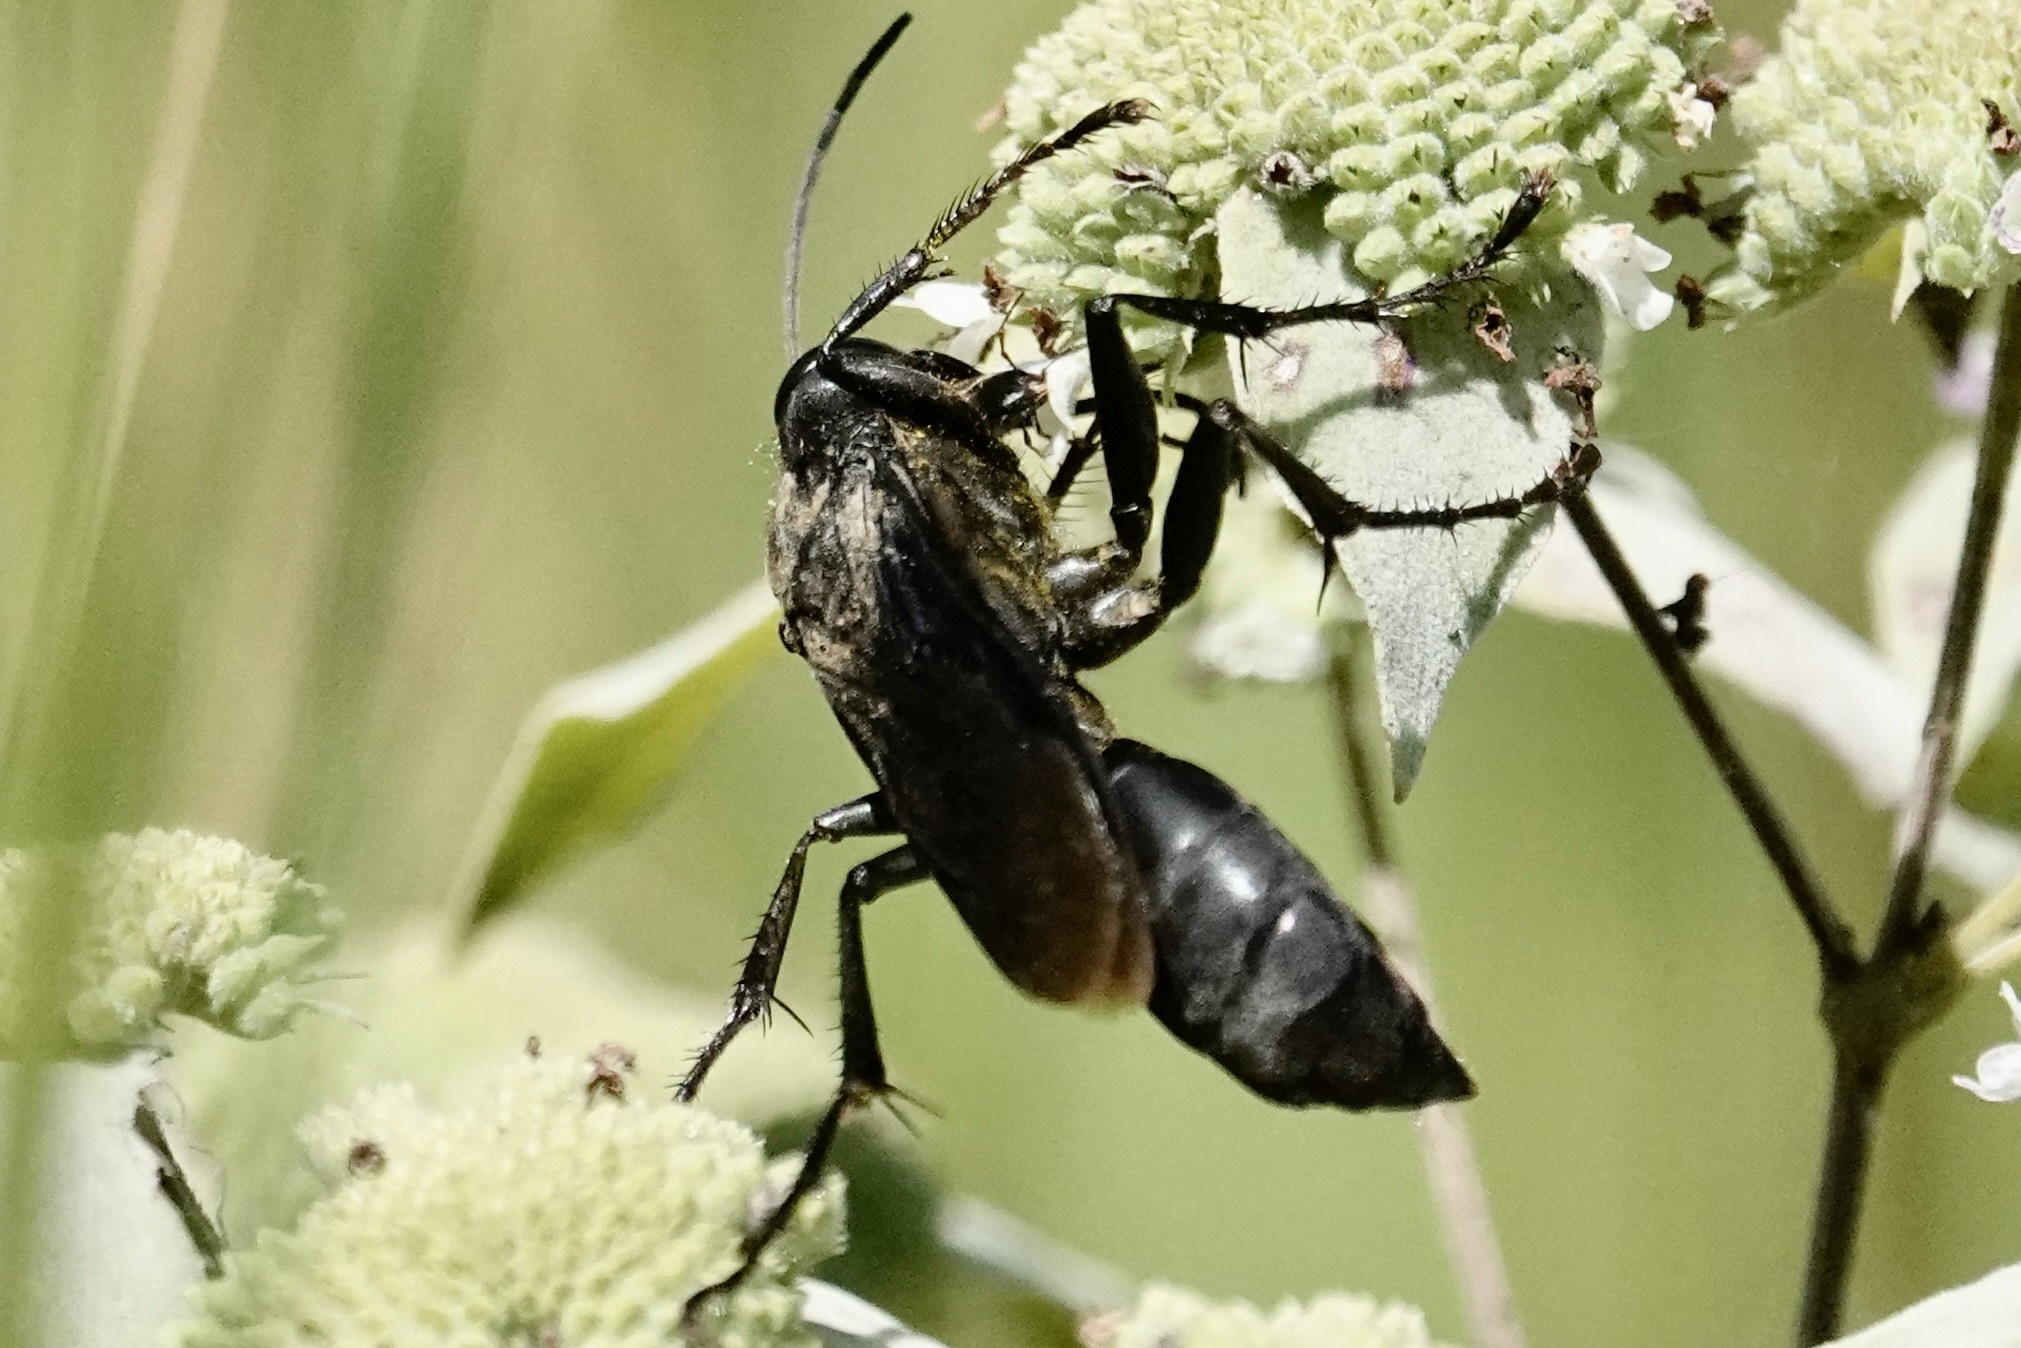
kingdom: Animalia
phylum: Arthropoda
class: Insecta
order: Hymenoptera
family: Sphecidae
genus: Sphex
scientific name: Sphex pensylvanicus
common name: Great black digger wasp
